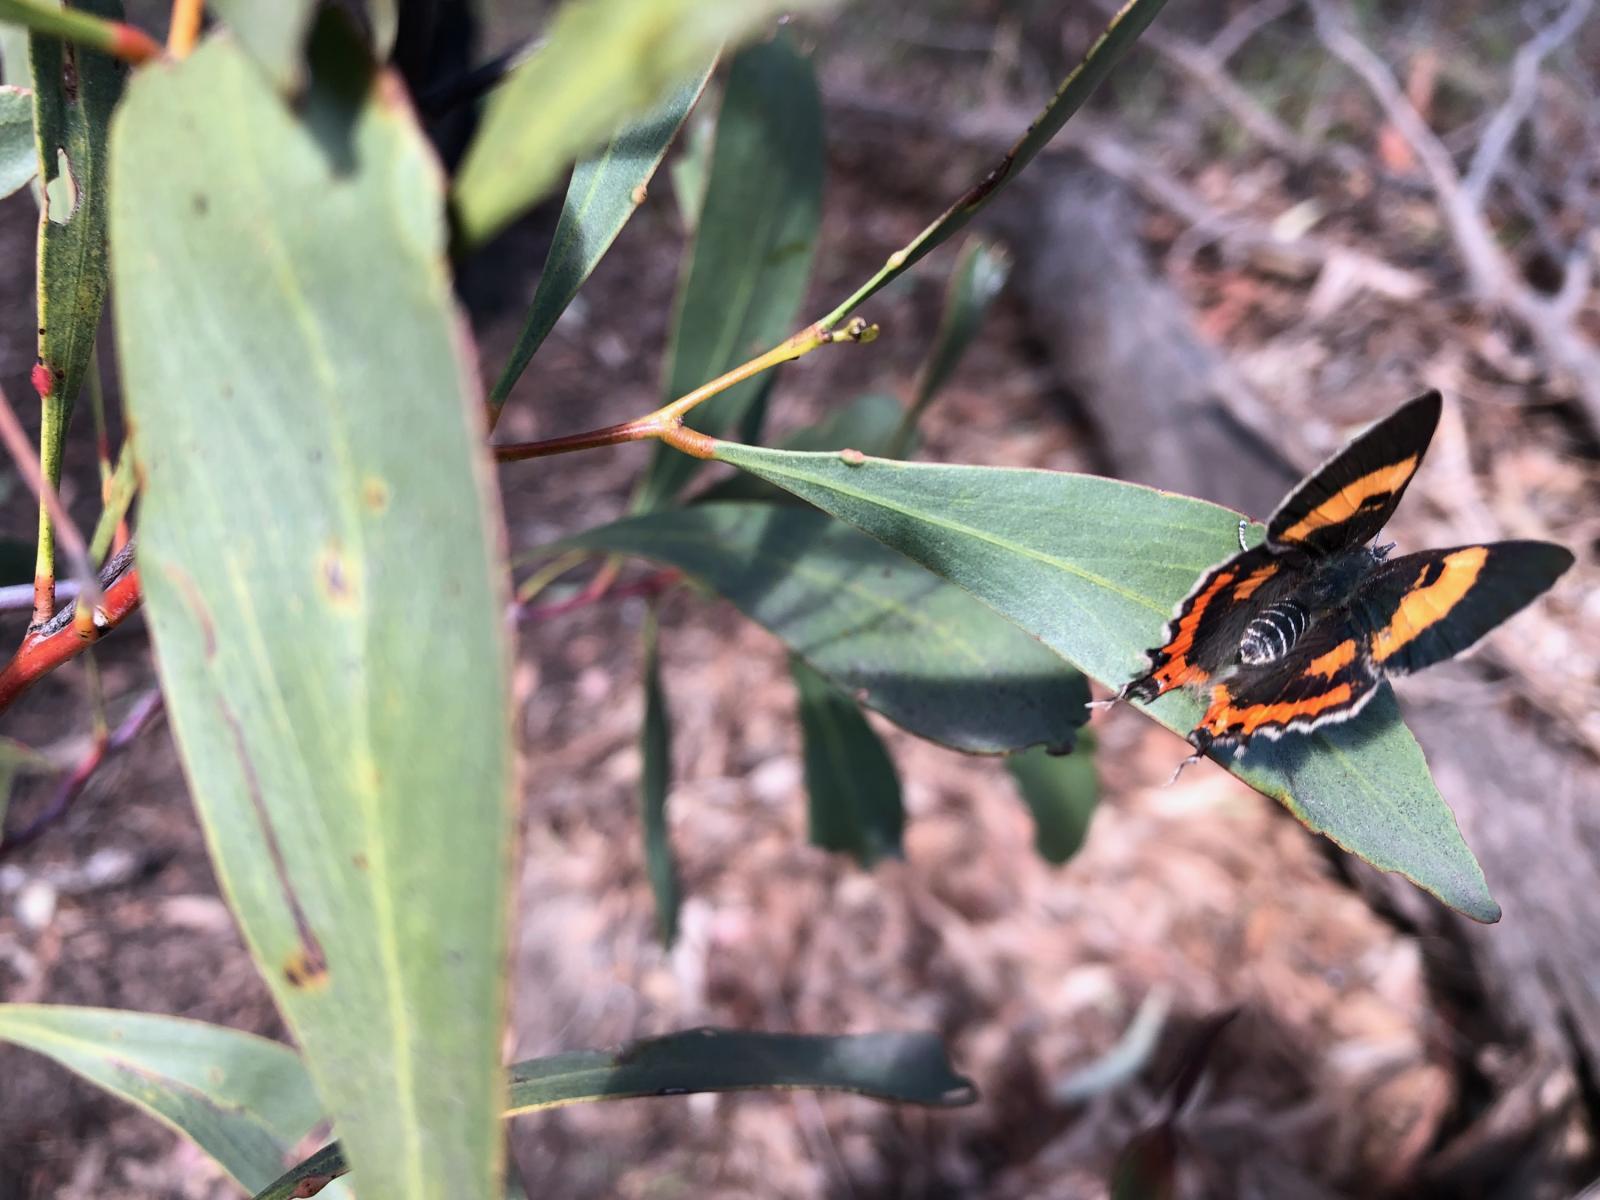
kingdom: Animalia
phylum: Arthropoda
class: Insecta
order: Lepidoptera
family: Lycaenidae
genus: Pseudalmenus
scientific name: Pseudalmenus chlorinda
